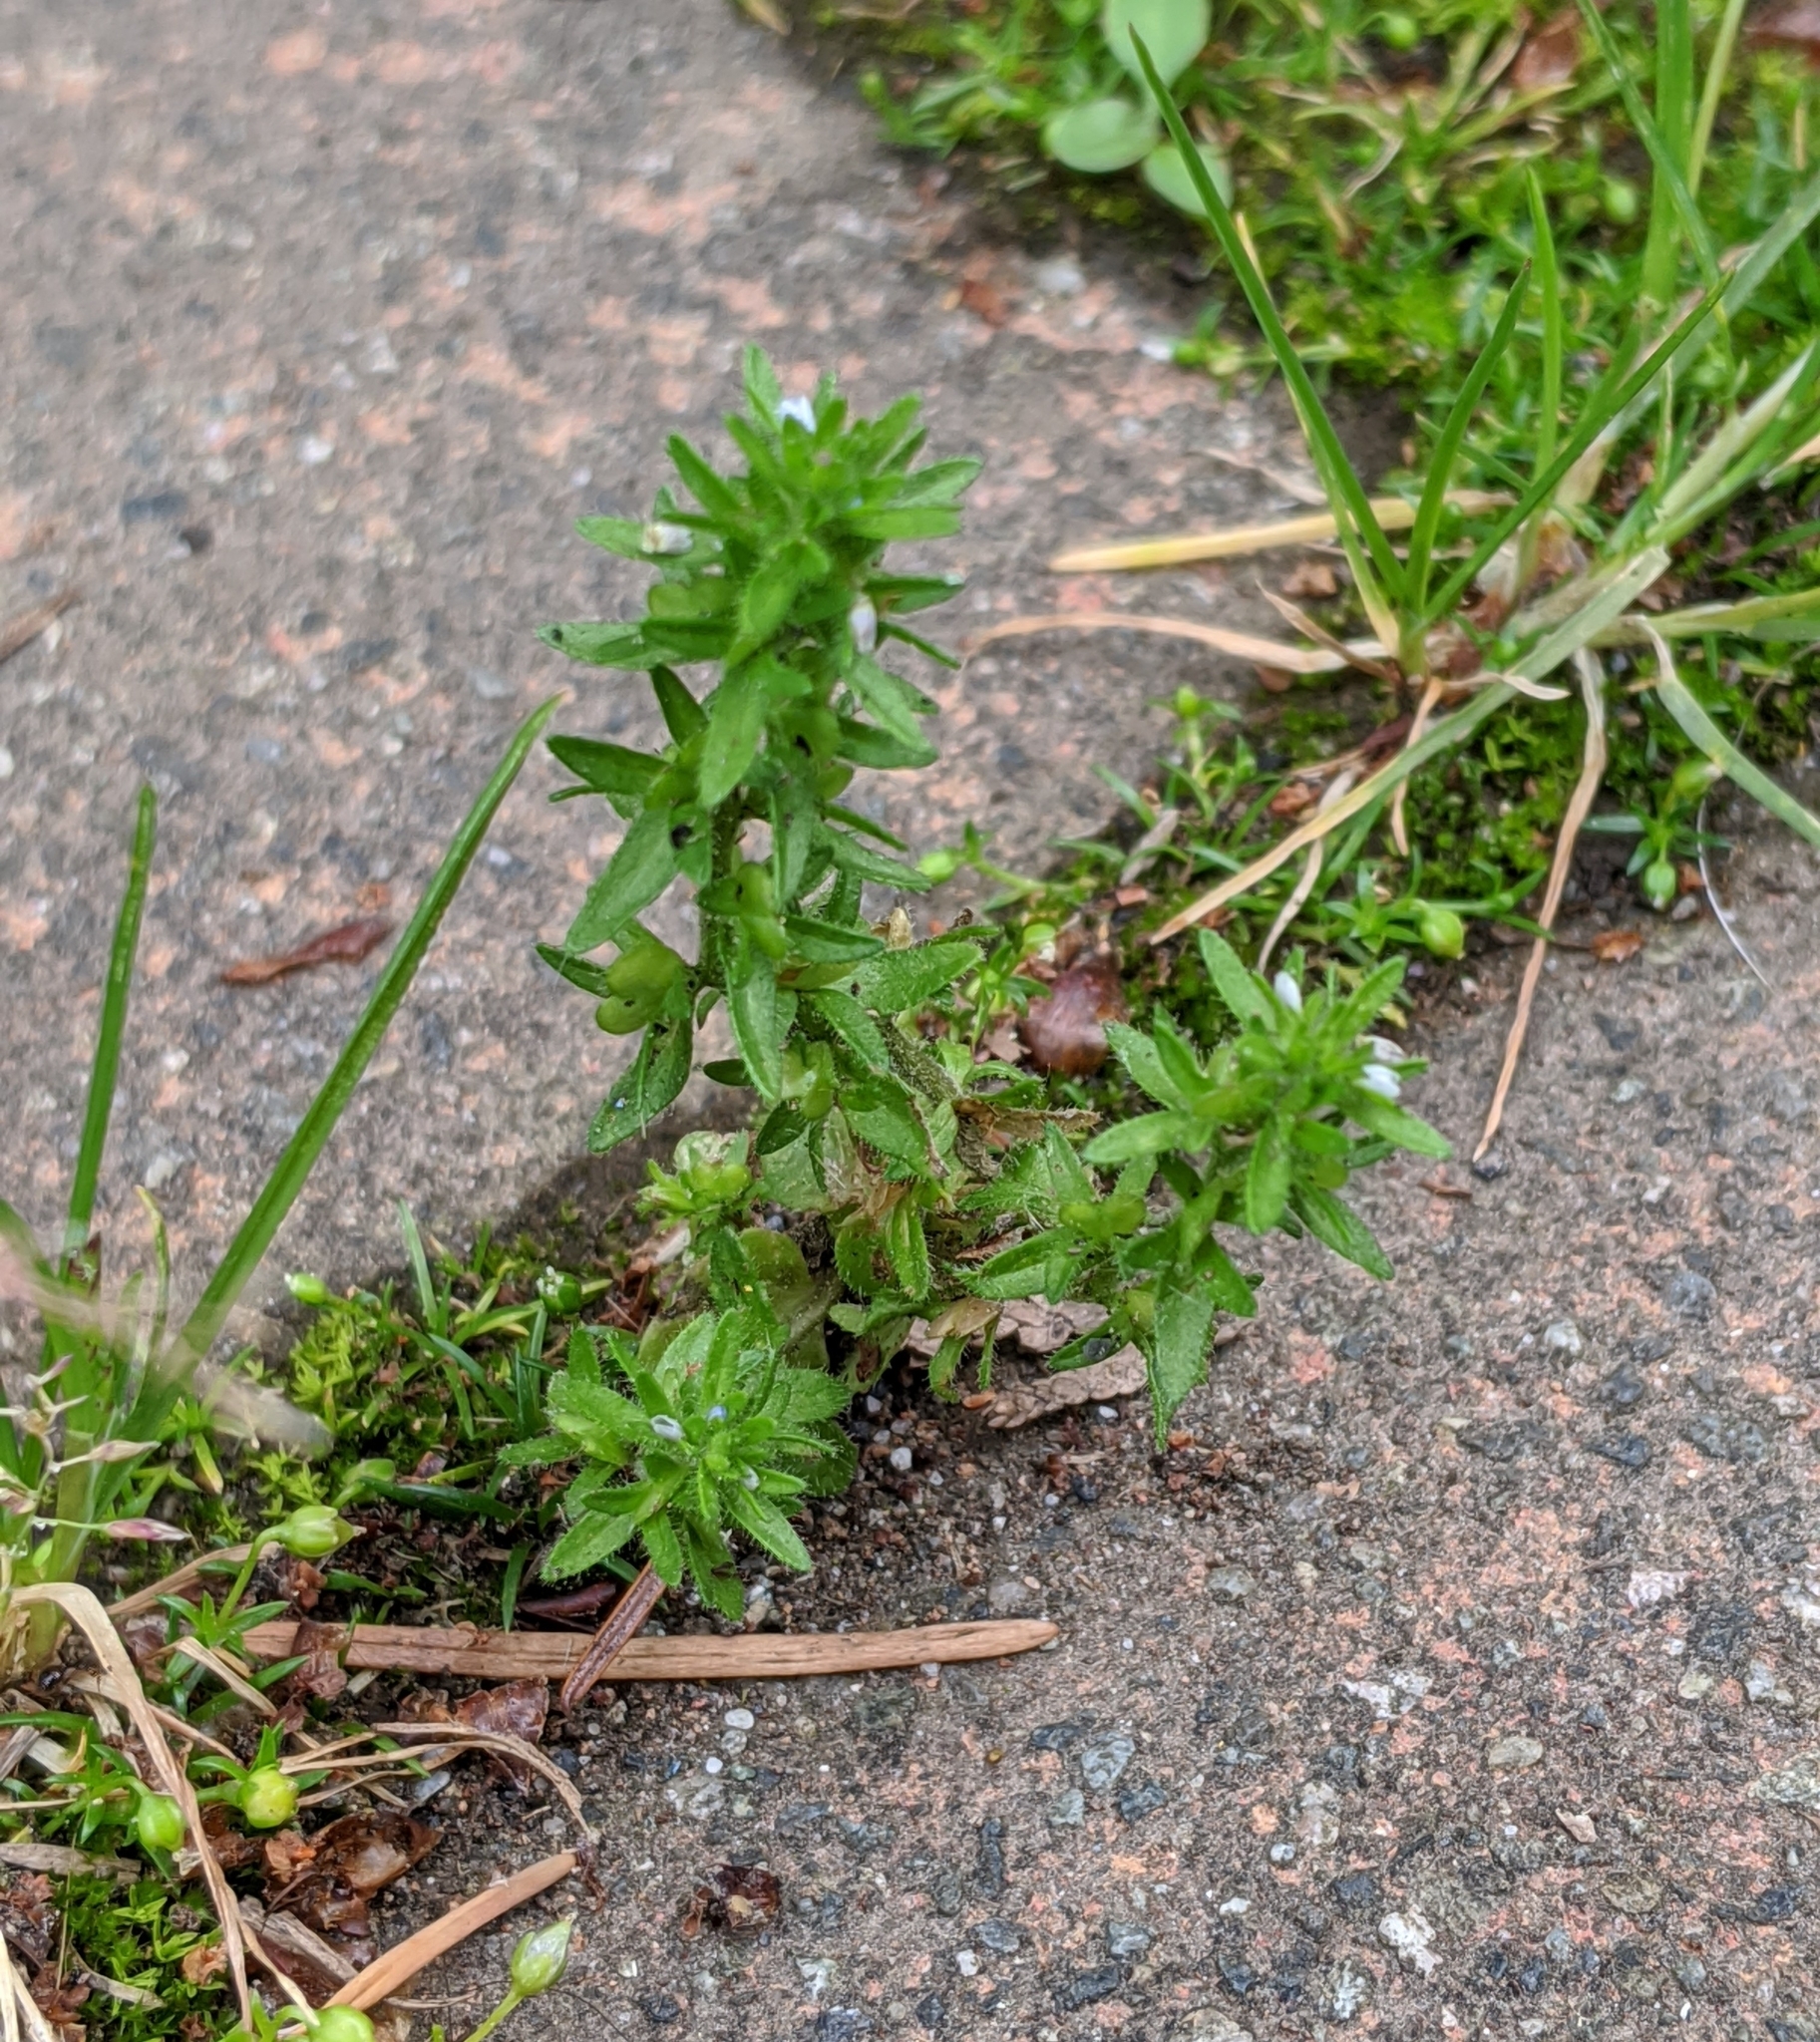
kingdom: Plantae
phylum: Tracheophyta
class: Magnoliopsida
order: Lamiales
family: Plantaginaceae
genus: Veronica
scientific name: Veronica arvensis
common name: Corn speedwell
